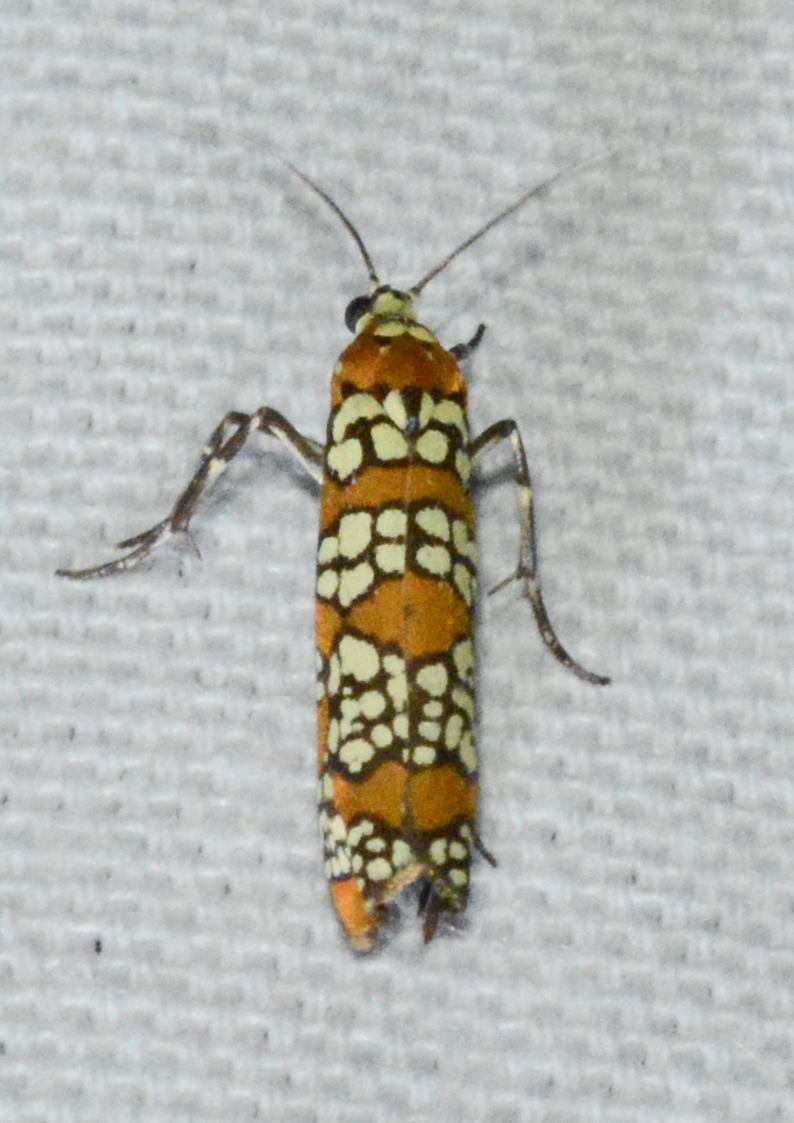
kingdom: Animalia
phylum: Arthropoda
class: Insecta
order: Lepidoptera
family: Attevidae
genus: Atteva
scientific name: Atteva punctella
